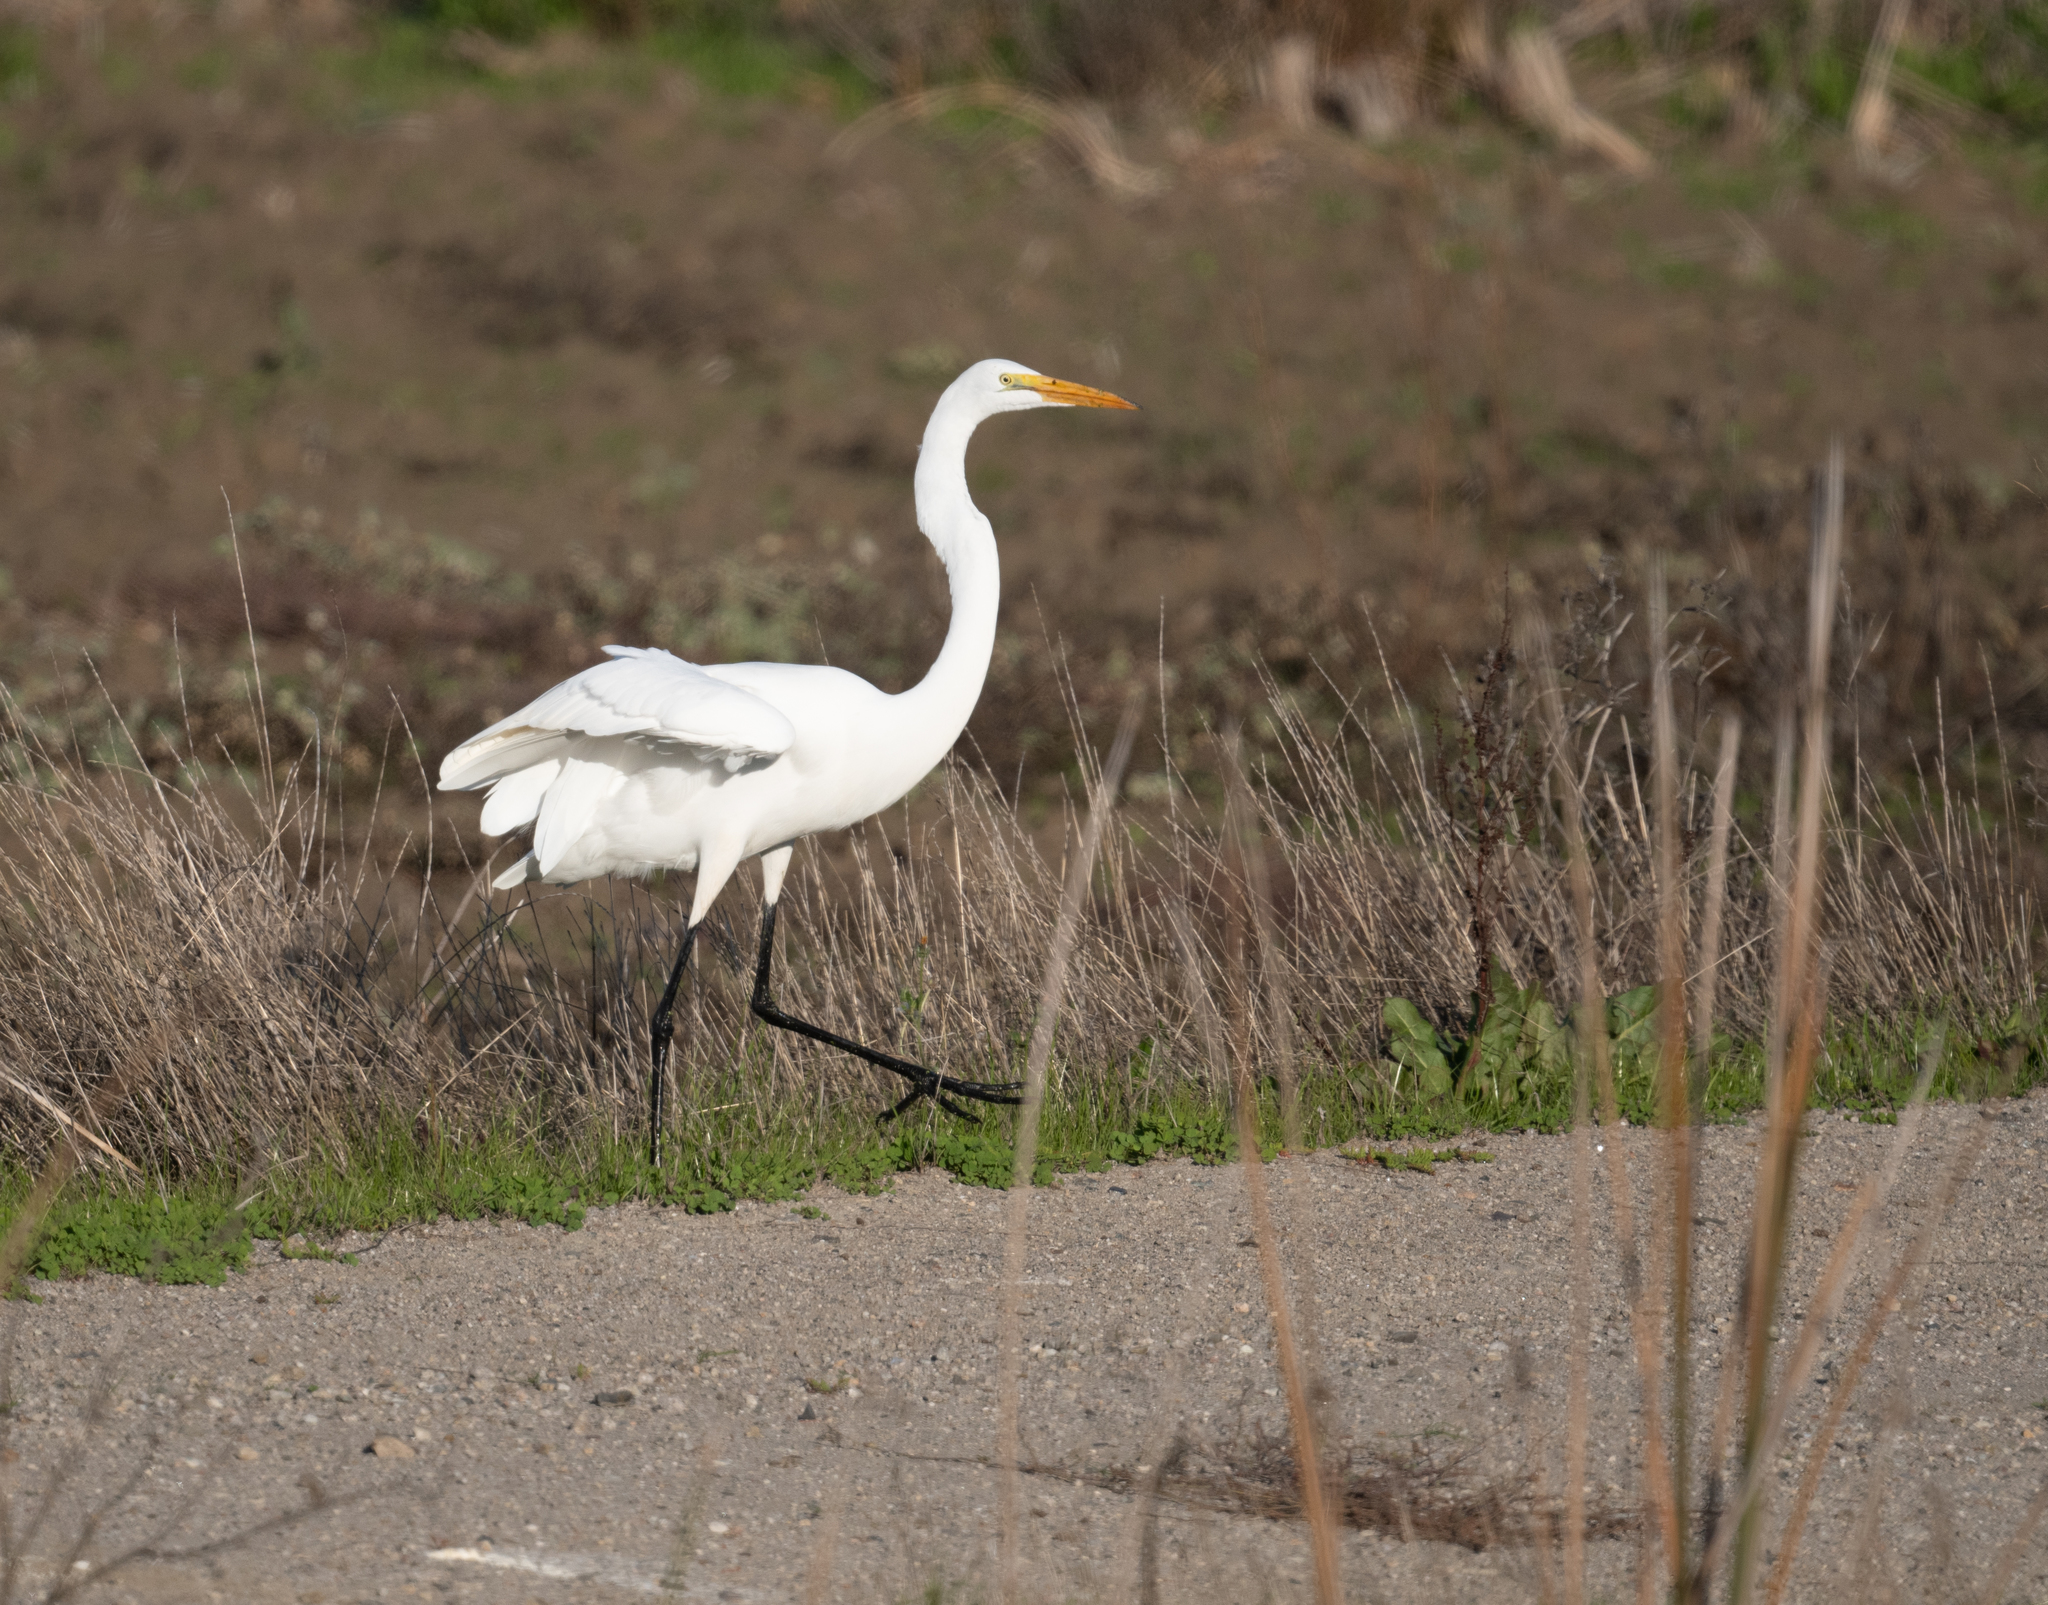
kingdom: Animalia
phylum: Chordata
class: Aves
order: Pelecaniformes
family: Ardeidae
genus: Ardea
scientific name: Ardea alba
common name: Great egret
